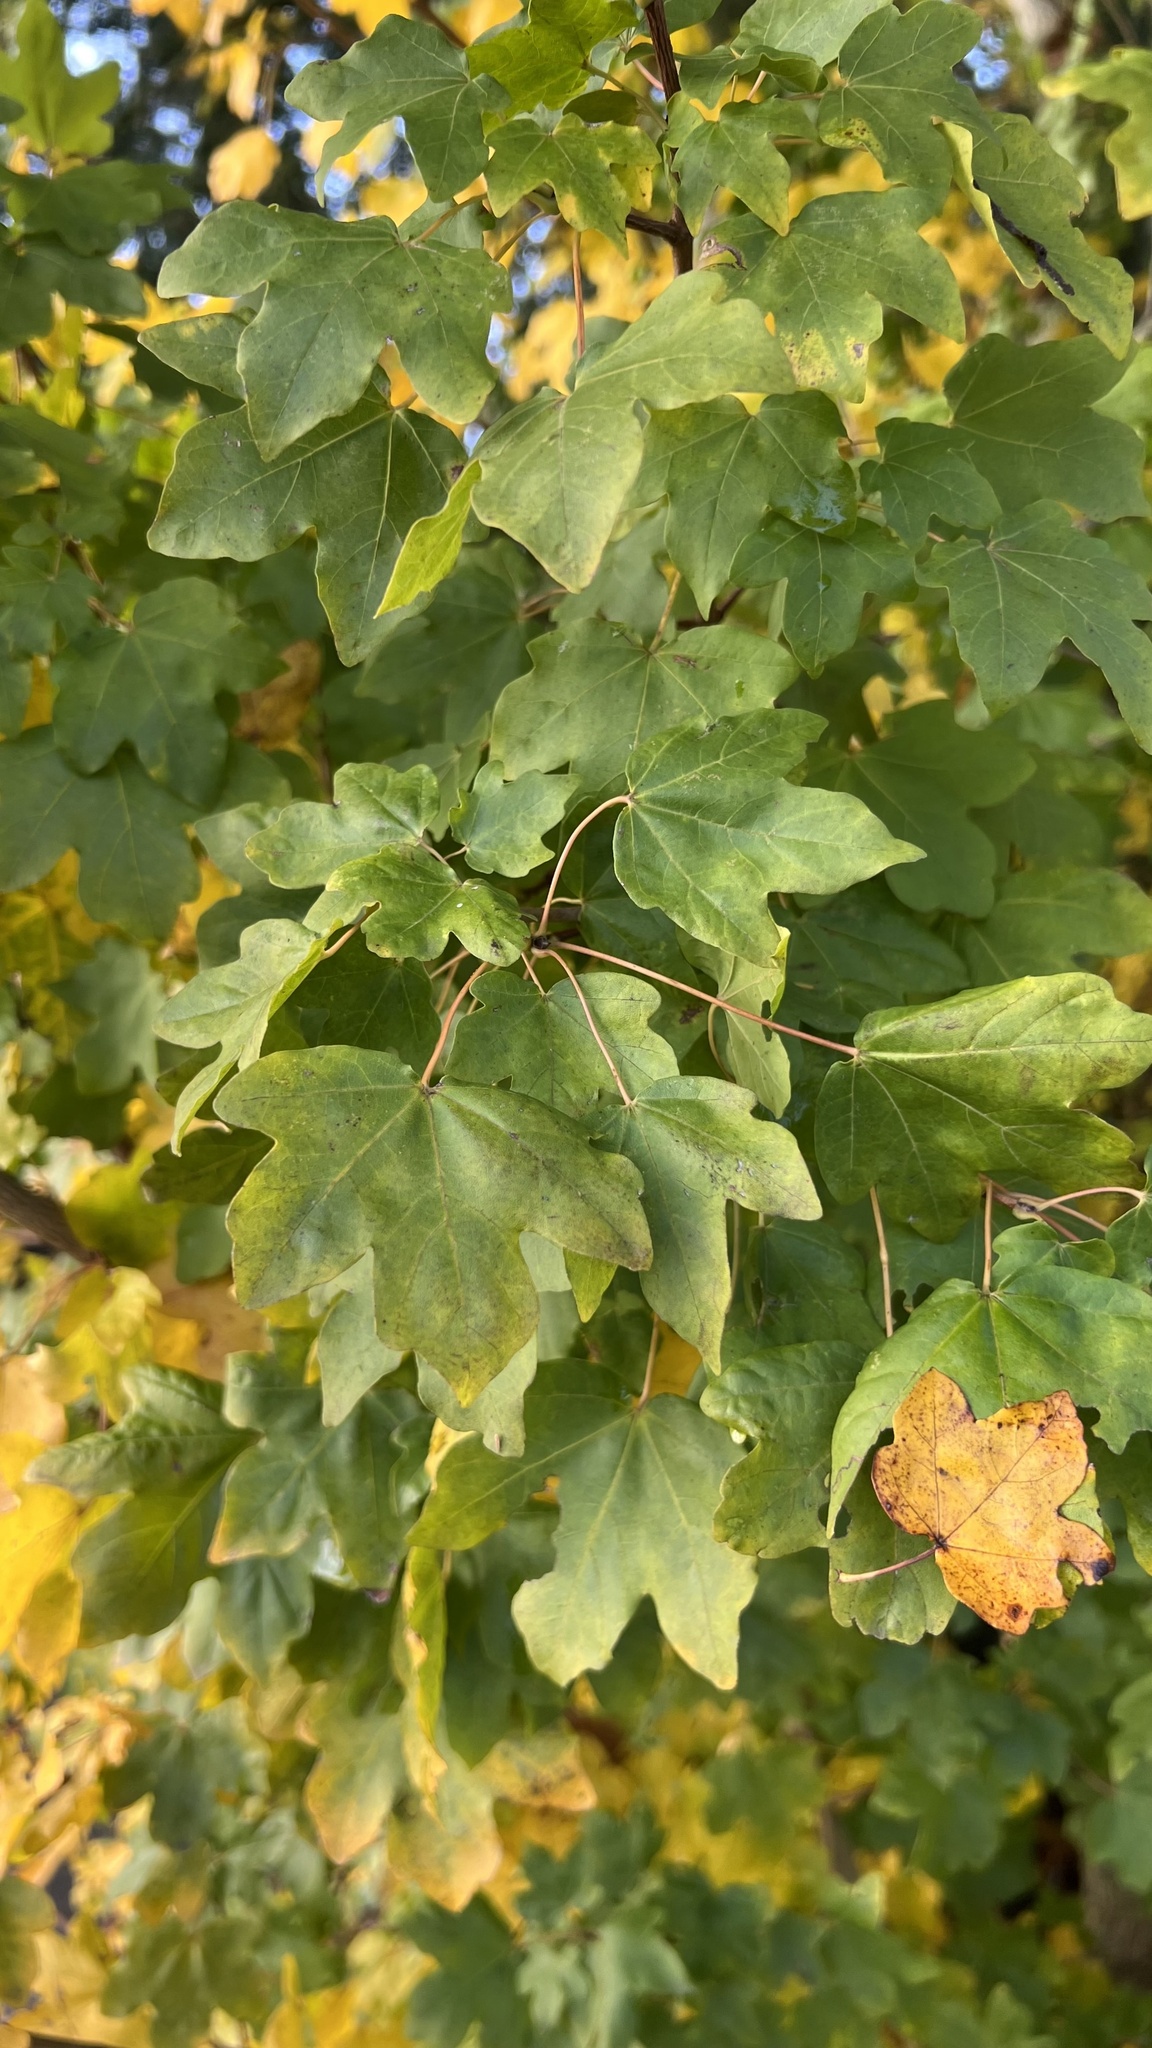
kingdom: Plantae
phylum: Tracheophyta
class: Magnoliopsida
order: Sapindales
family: Sapindaceae
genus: Acer
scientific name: Acer campestre
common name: Field maple
